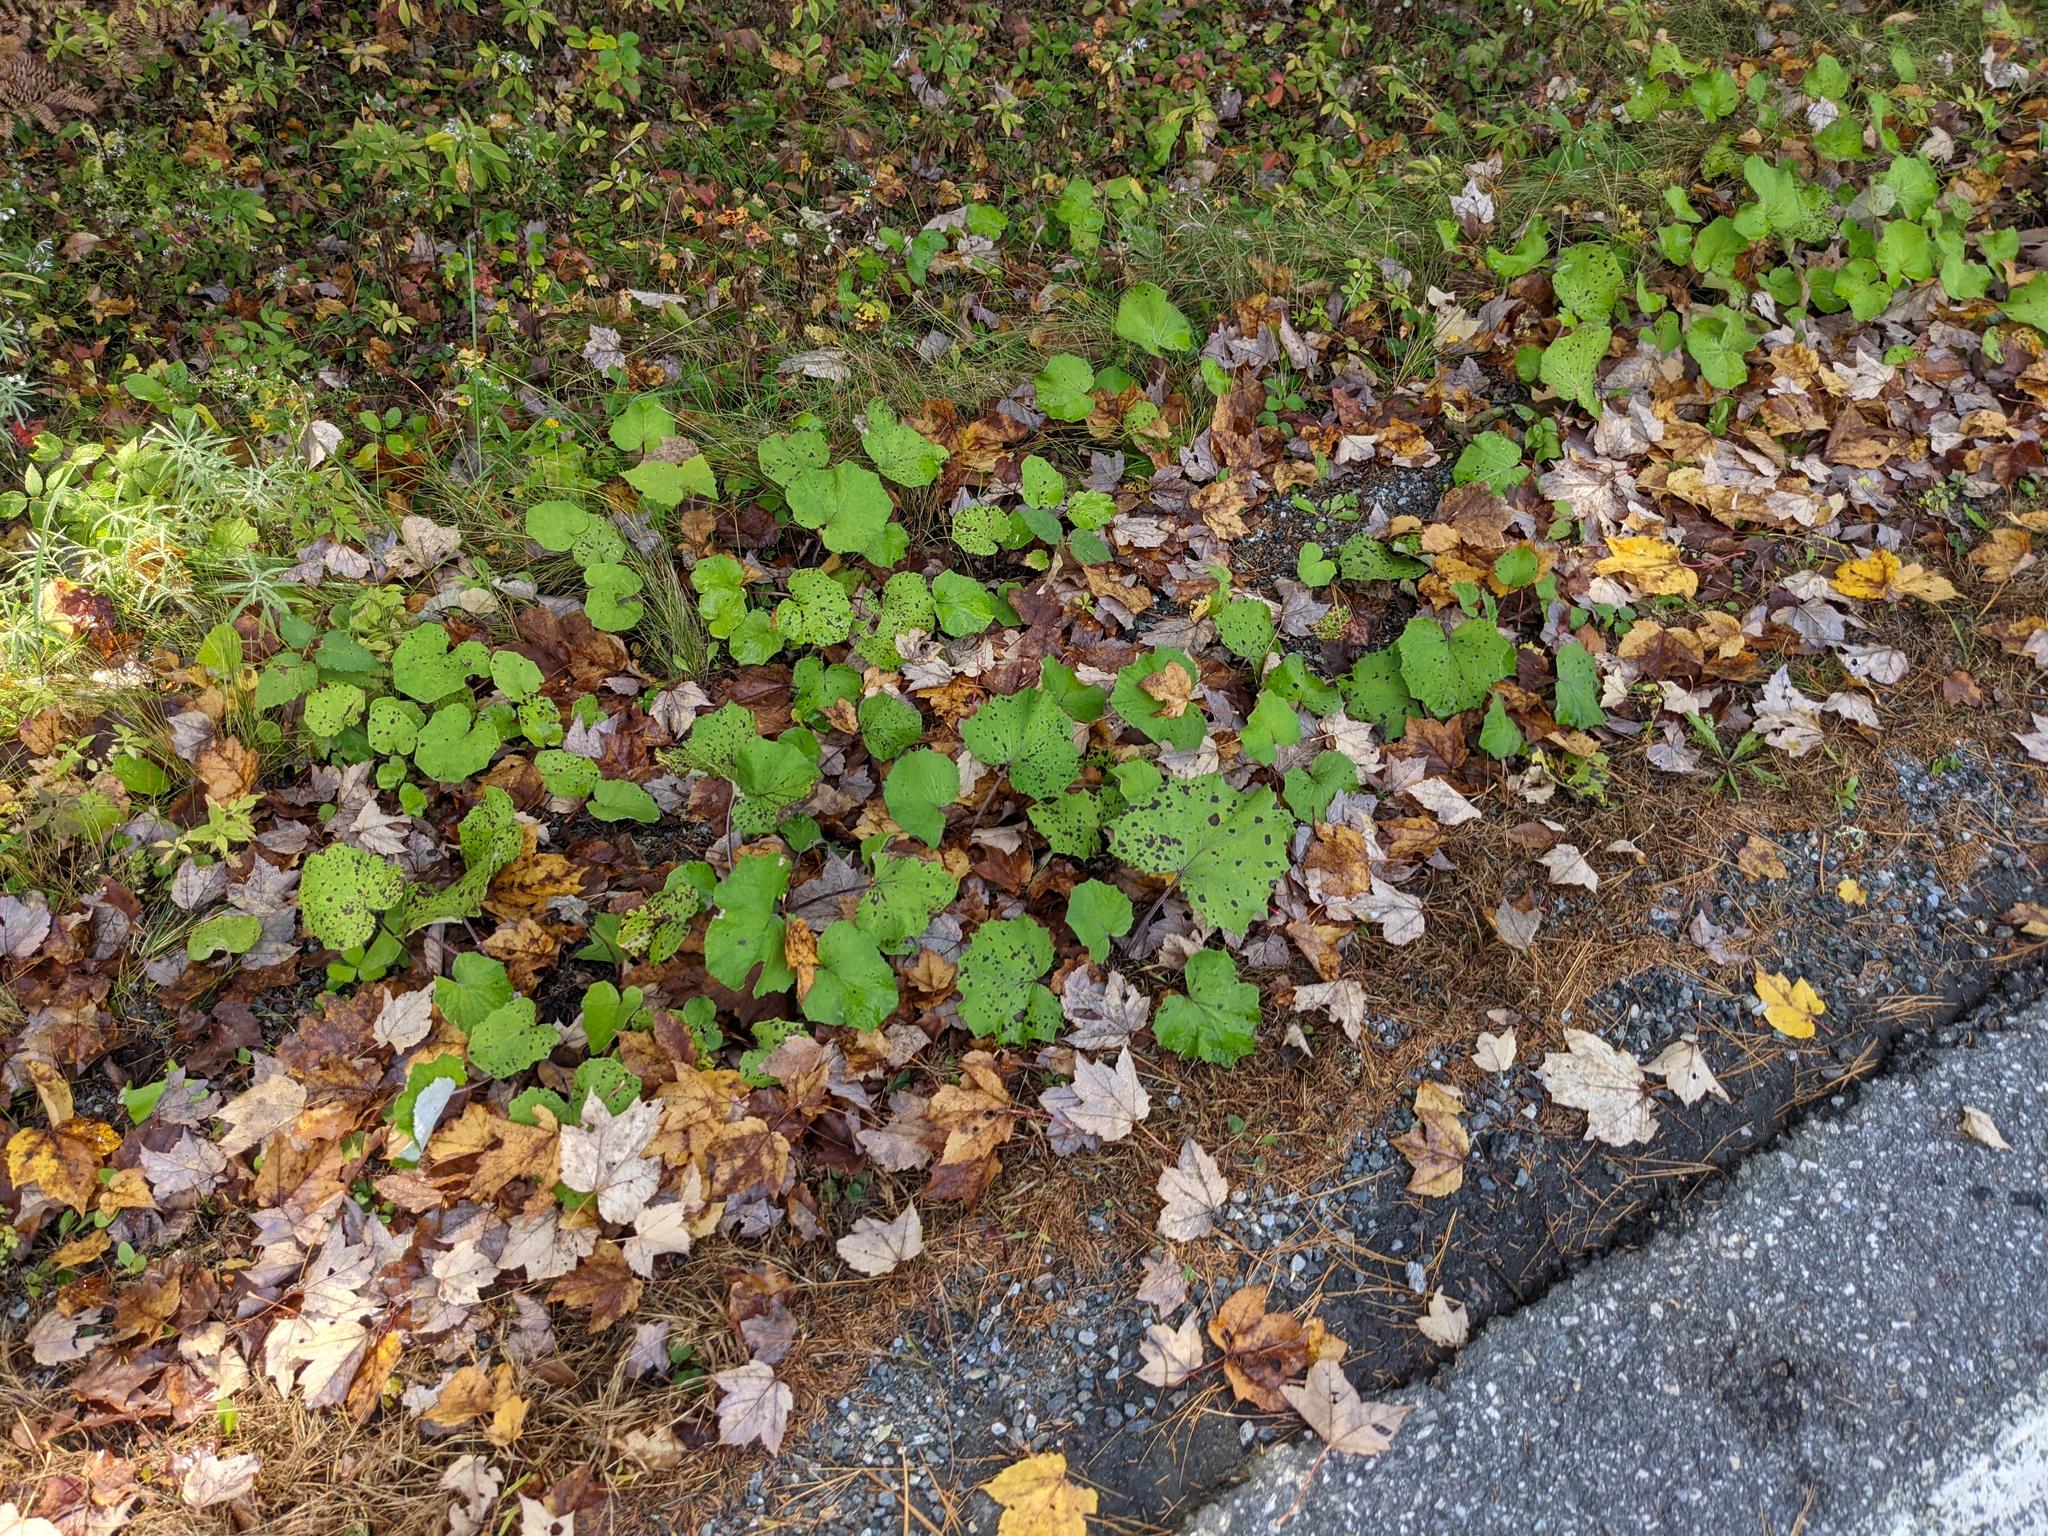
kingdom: Plantae
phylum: Tracheophyta
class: Magnoliopsida
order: Asterales
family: Asteraceae
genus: Tussilago
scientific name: Tussilago farfara
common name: Coltsfoot
